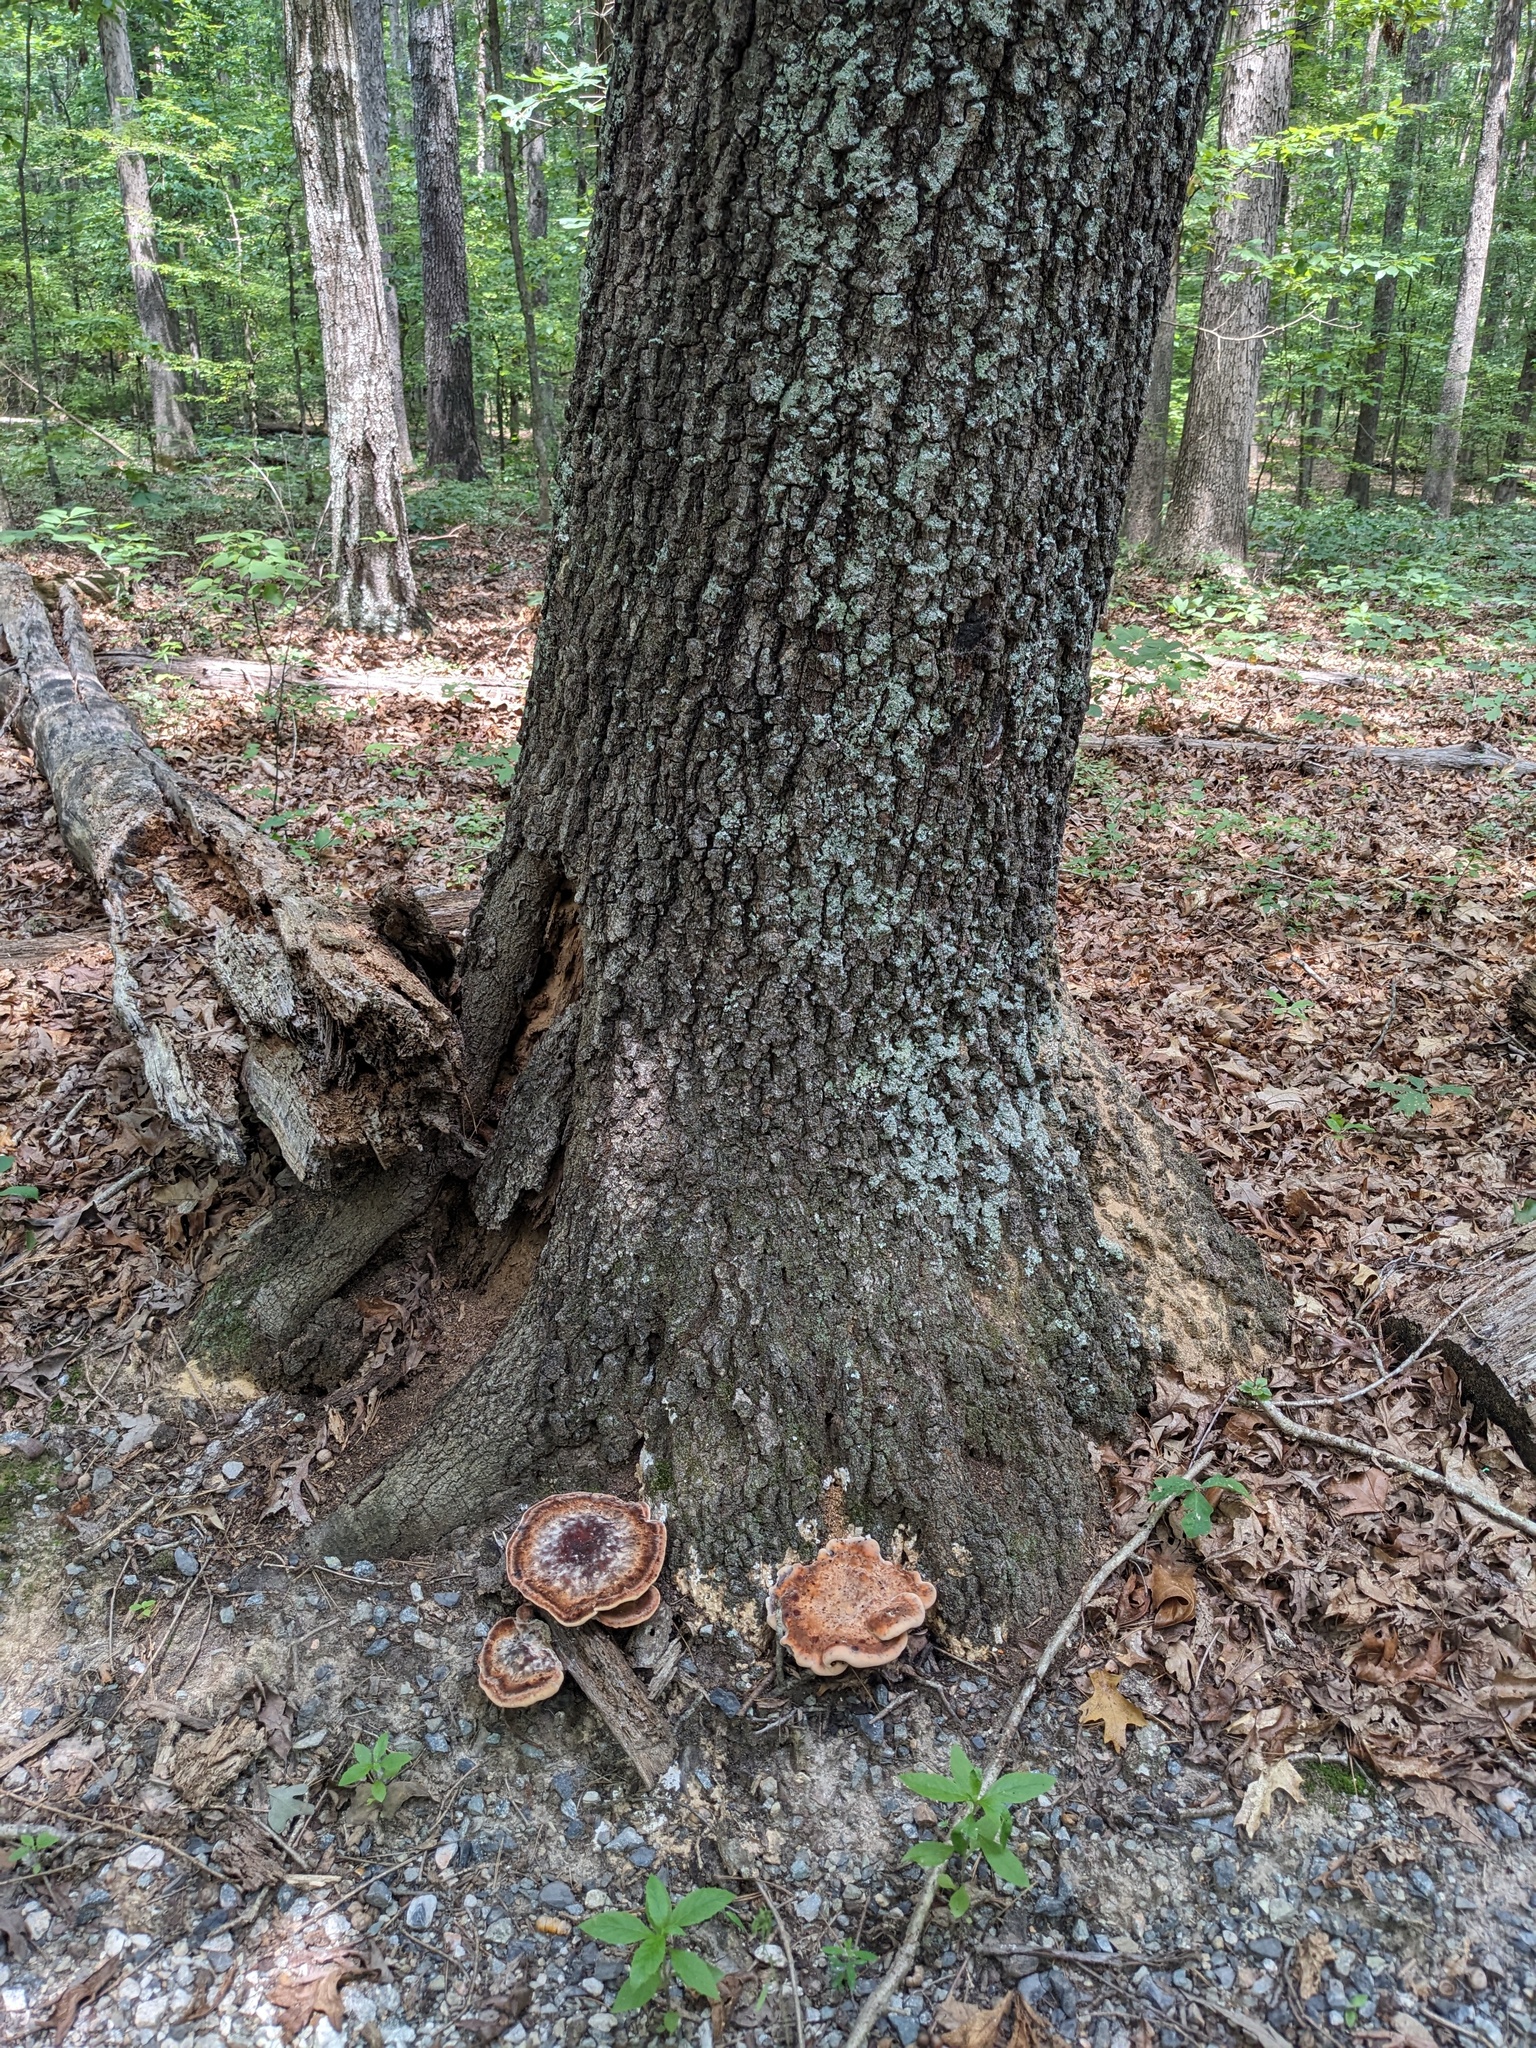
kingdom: Fungi
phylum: Basidiomycota
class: Agaricomycetes
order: Polyporales
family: Laetiporaceae
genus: Berkcurtia
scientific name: Berkcurtia persicina
